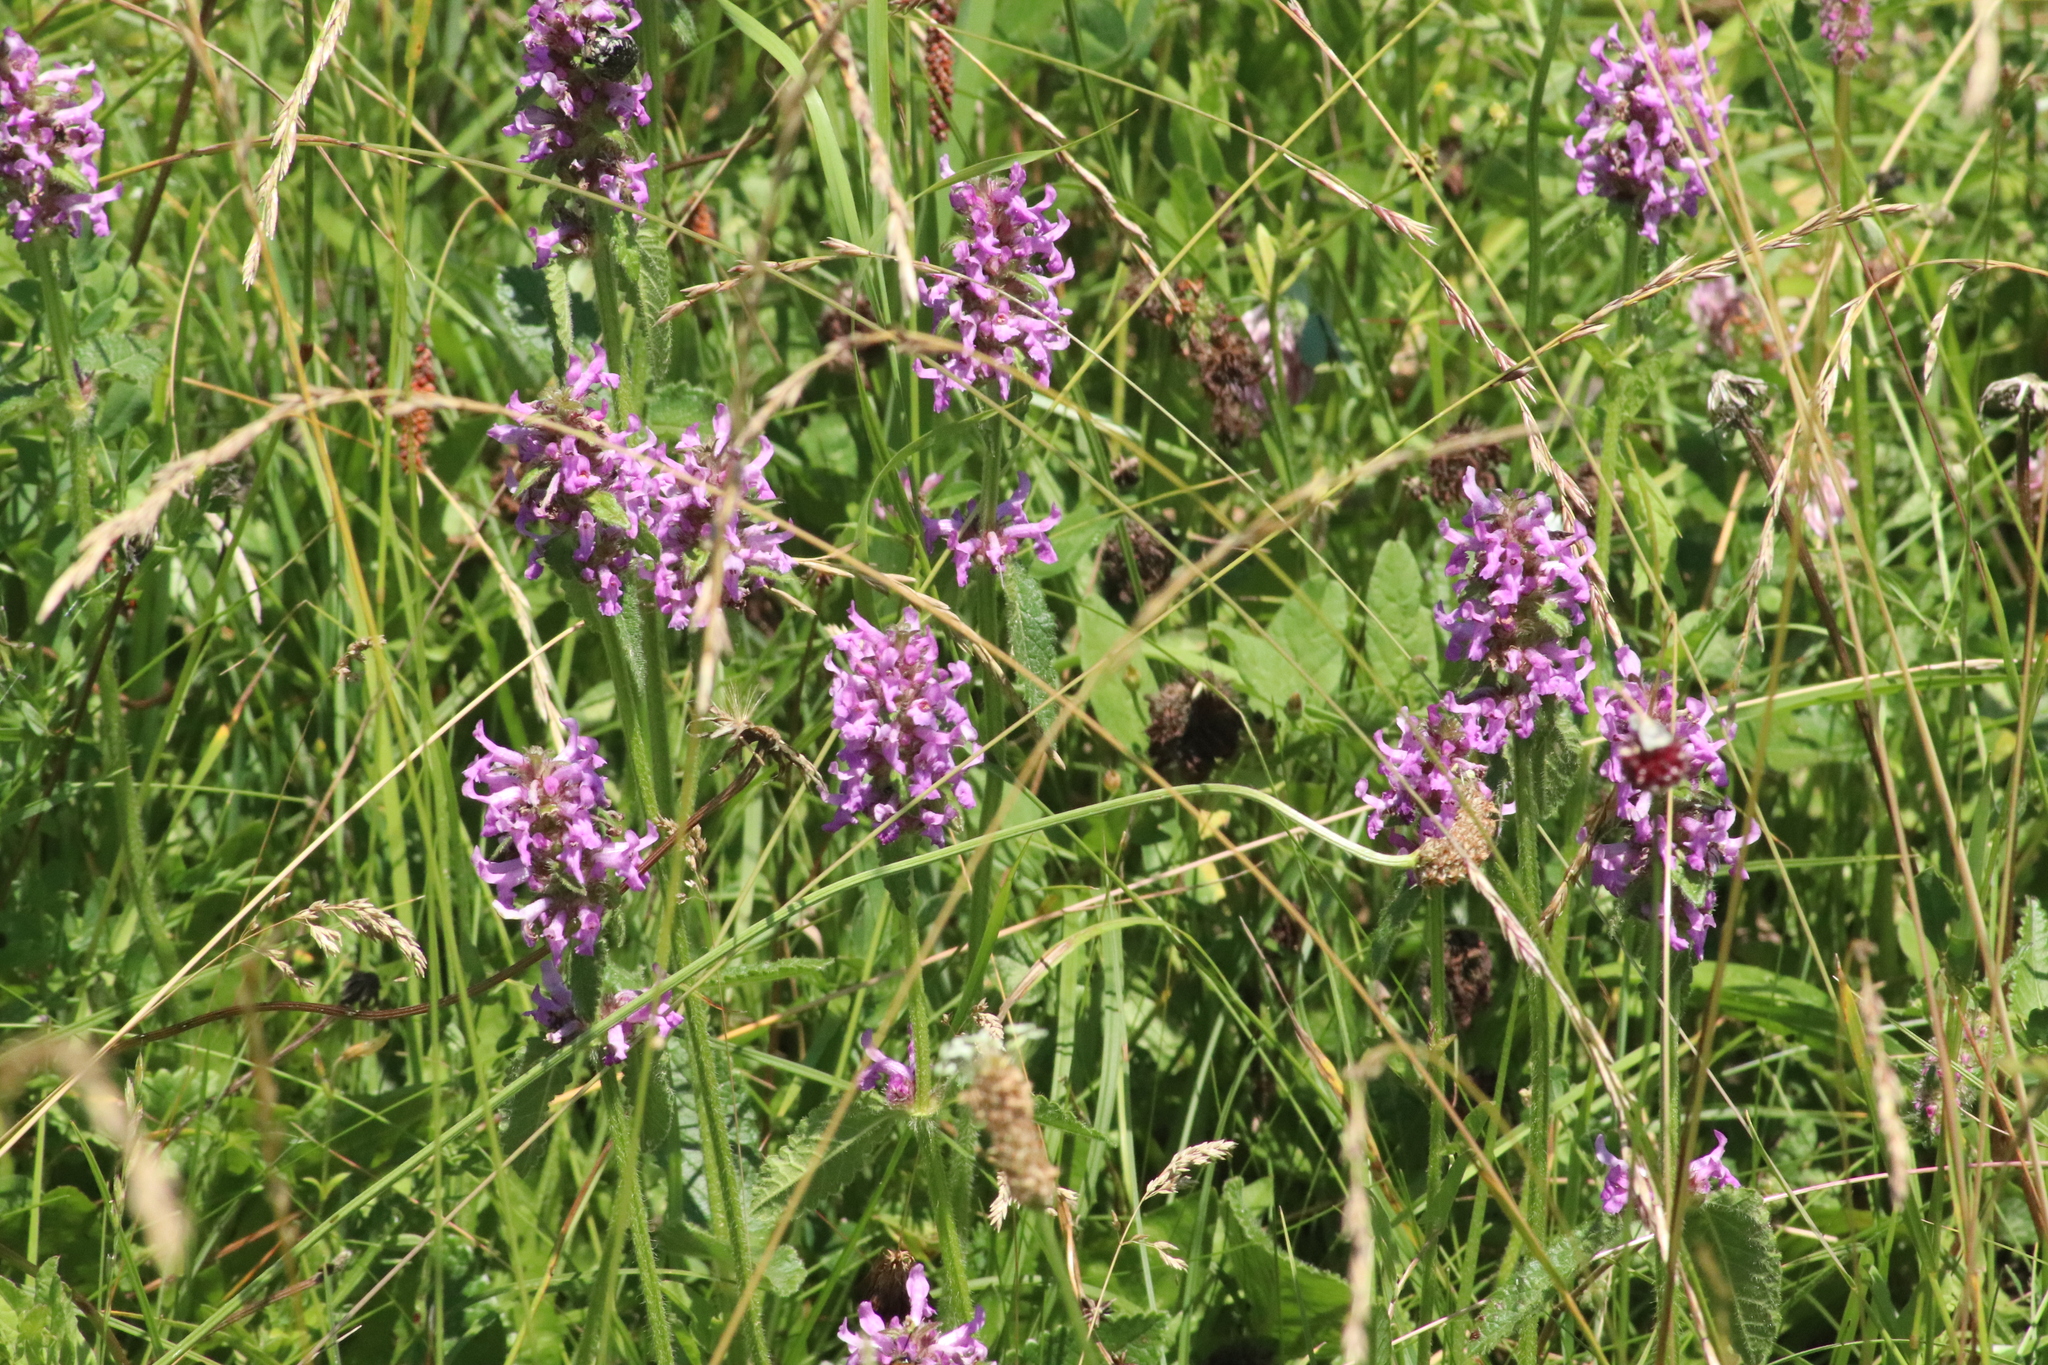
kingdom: Plantae
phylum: Tracheophyta
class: Magnoliopsida
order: Lamiales
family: Lamiaceae
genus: Betonica
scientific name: Betonica officinalis
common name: Bishop's-wort
